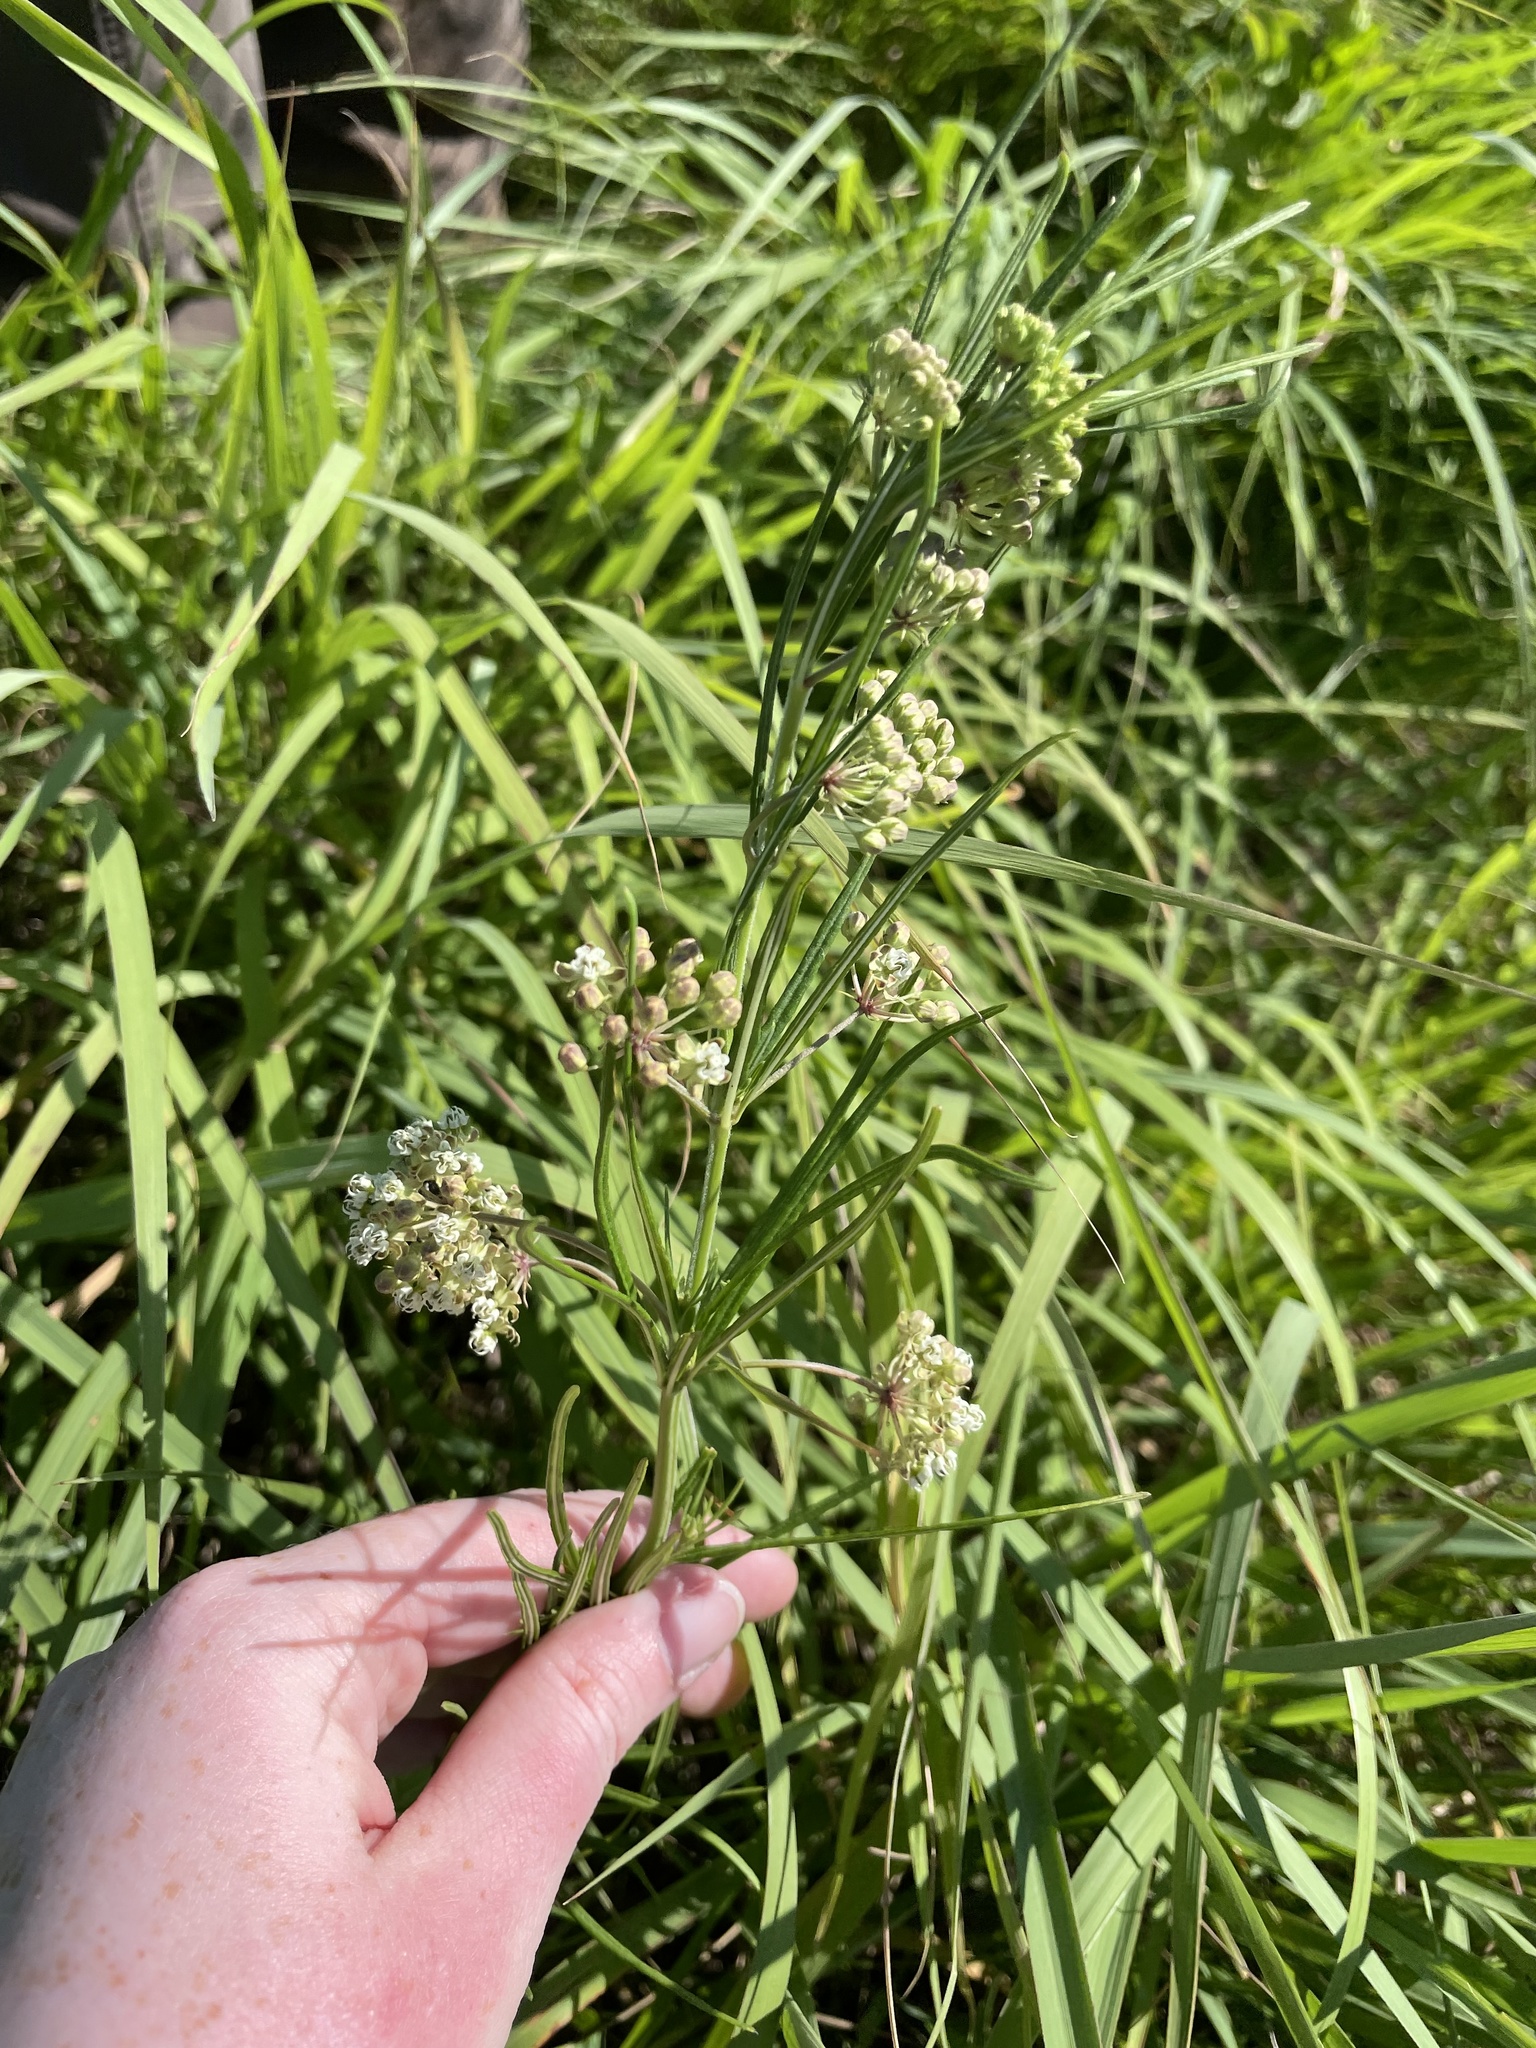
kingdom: Plantae
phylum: Tracheophyta
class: Magnoliopsida
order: Gentianales
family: Apocynaceae
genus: Asclepias
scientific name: Asclepias verticillata
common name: Eastern whorled milkweed
